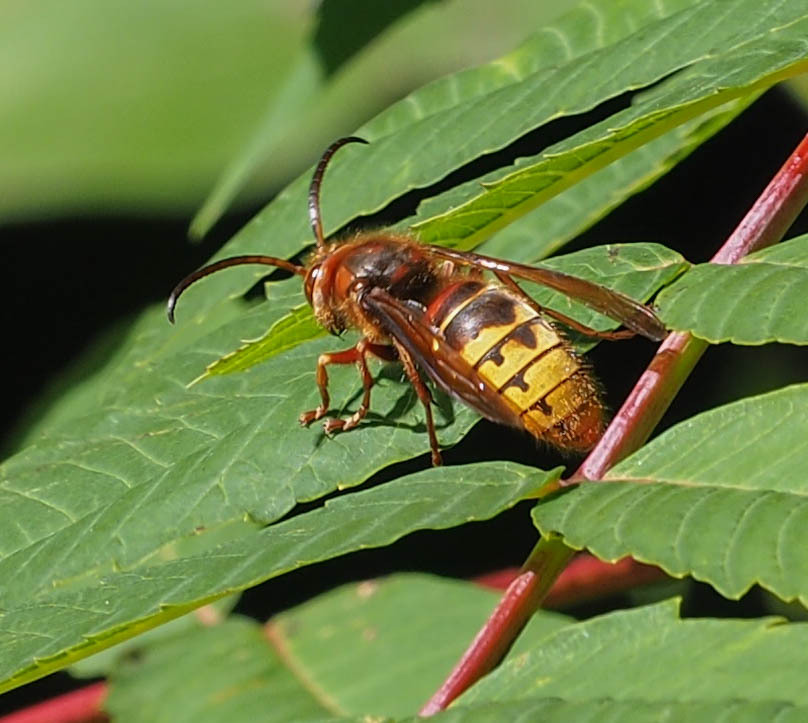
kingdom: Animalia
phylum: Arthropoda
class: Insecta
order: Hymenoptera
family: Vespidae
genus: Vespa
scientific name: Vespa crabro
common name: Hornet
